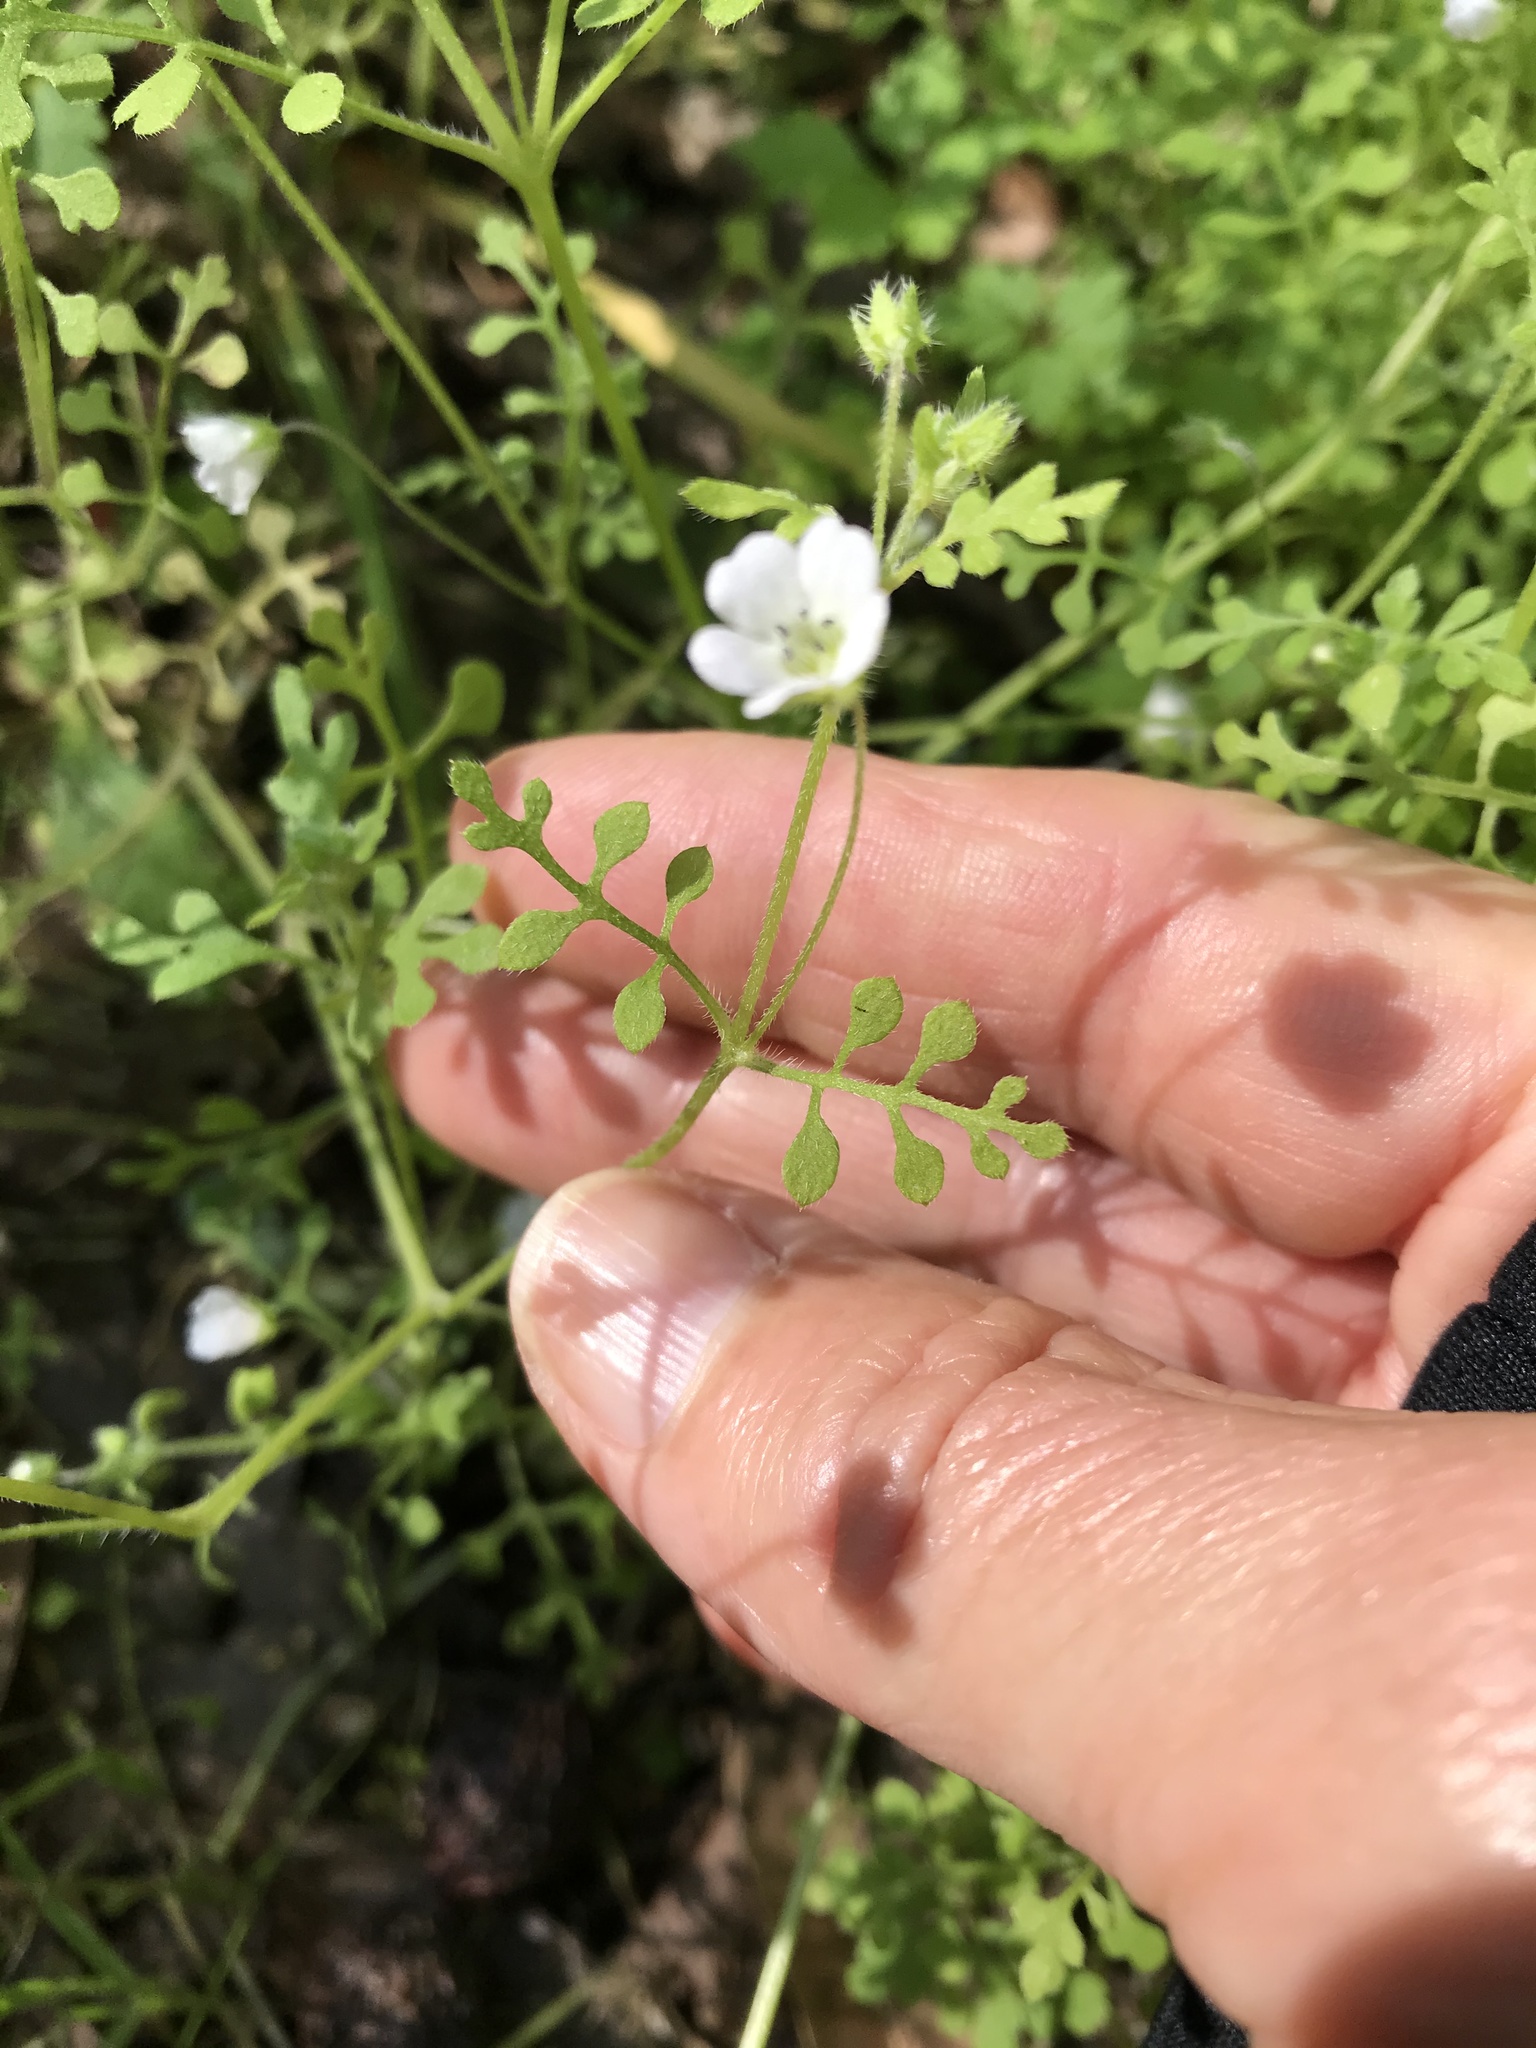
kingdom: Plantae
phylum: Tracheophyta
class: Magnoliopsida
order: Boraginales
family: Hydrophyllaceae
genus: Nemophila
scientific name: Nemophila heterophylla
